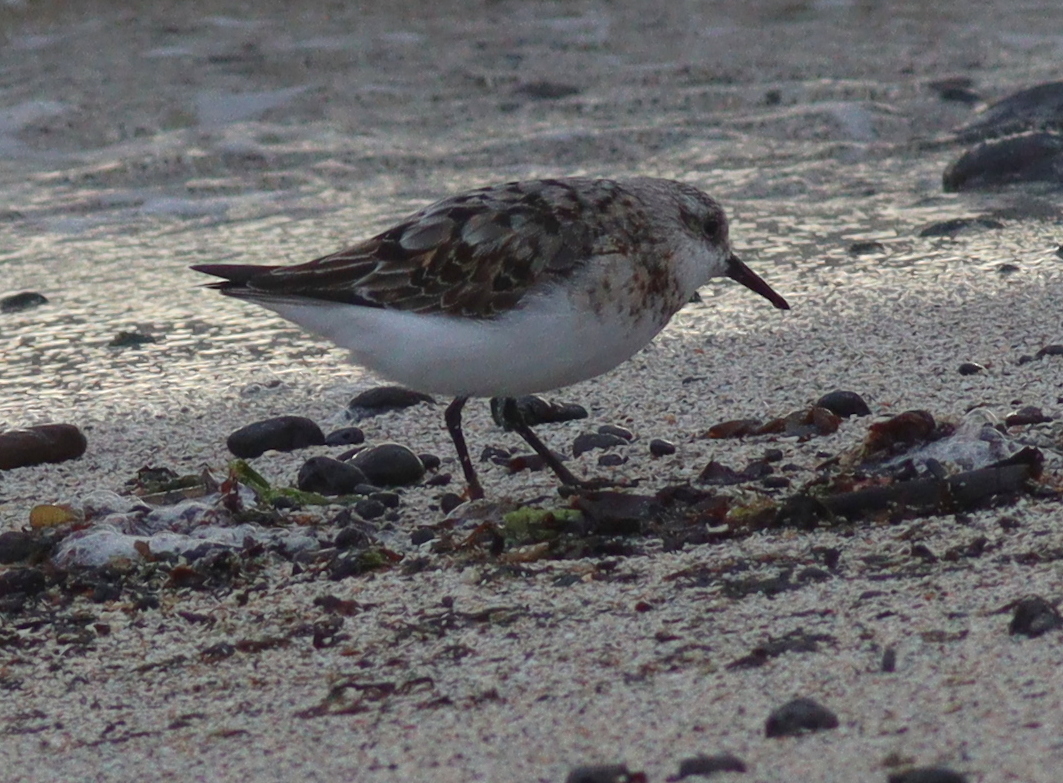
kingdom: Animalia
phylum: Chordata
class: Aves
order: Charadriiformes
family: Scolopacidae
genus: Calidris
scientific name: Calidris alba
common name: Sanderling
